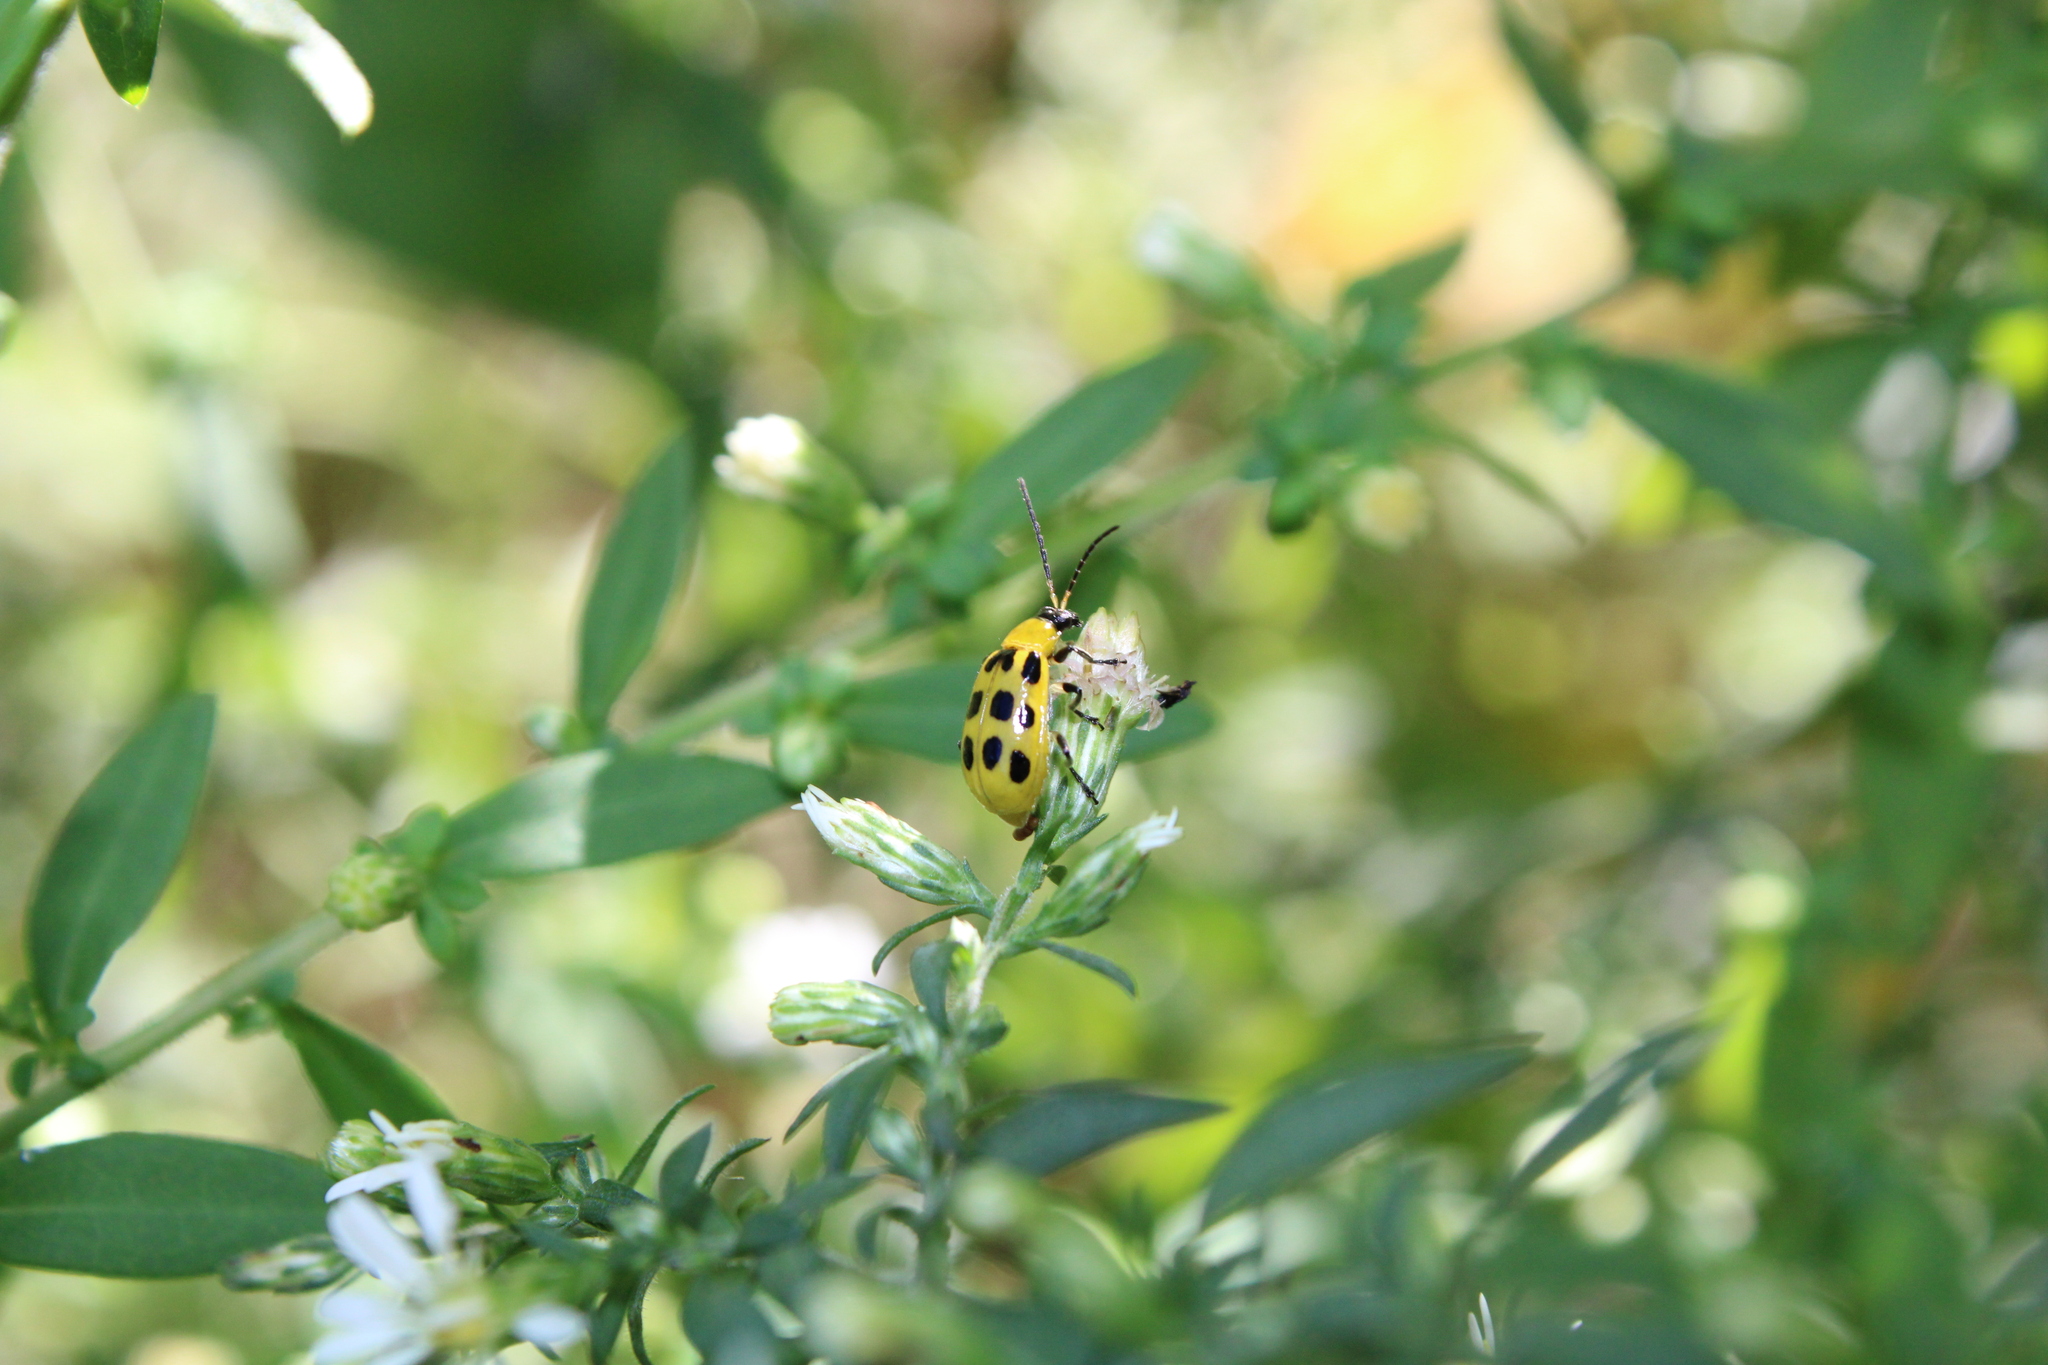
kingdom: Animalia
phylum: Arthropoda
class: Insecta
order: Coleoptera
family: Chrysomelidae
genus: Diabrotica
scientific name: Diabrotica undecimpunctata
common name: Spotted cucumber beetle
